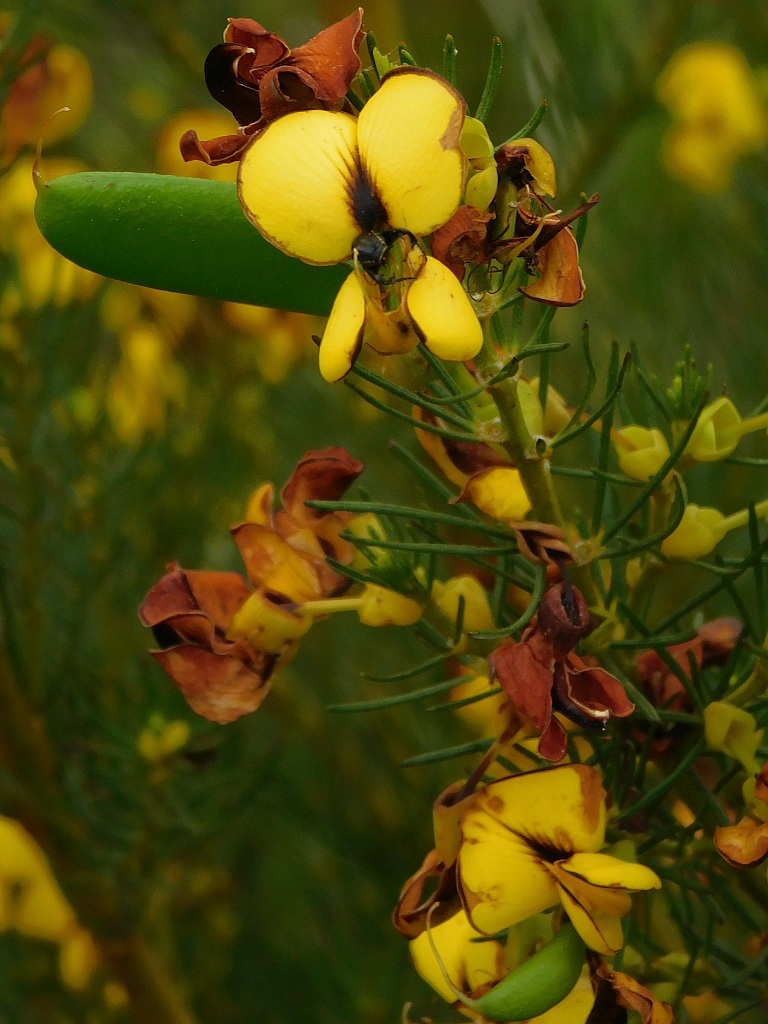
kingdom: Plantae
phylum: Tracheophyta
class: Magnoliopsida
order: Fabales
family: Fabaceae
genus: Cyclopia
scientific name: Cyclopia maculata
